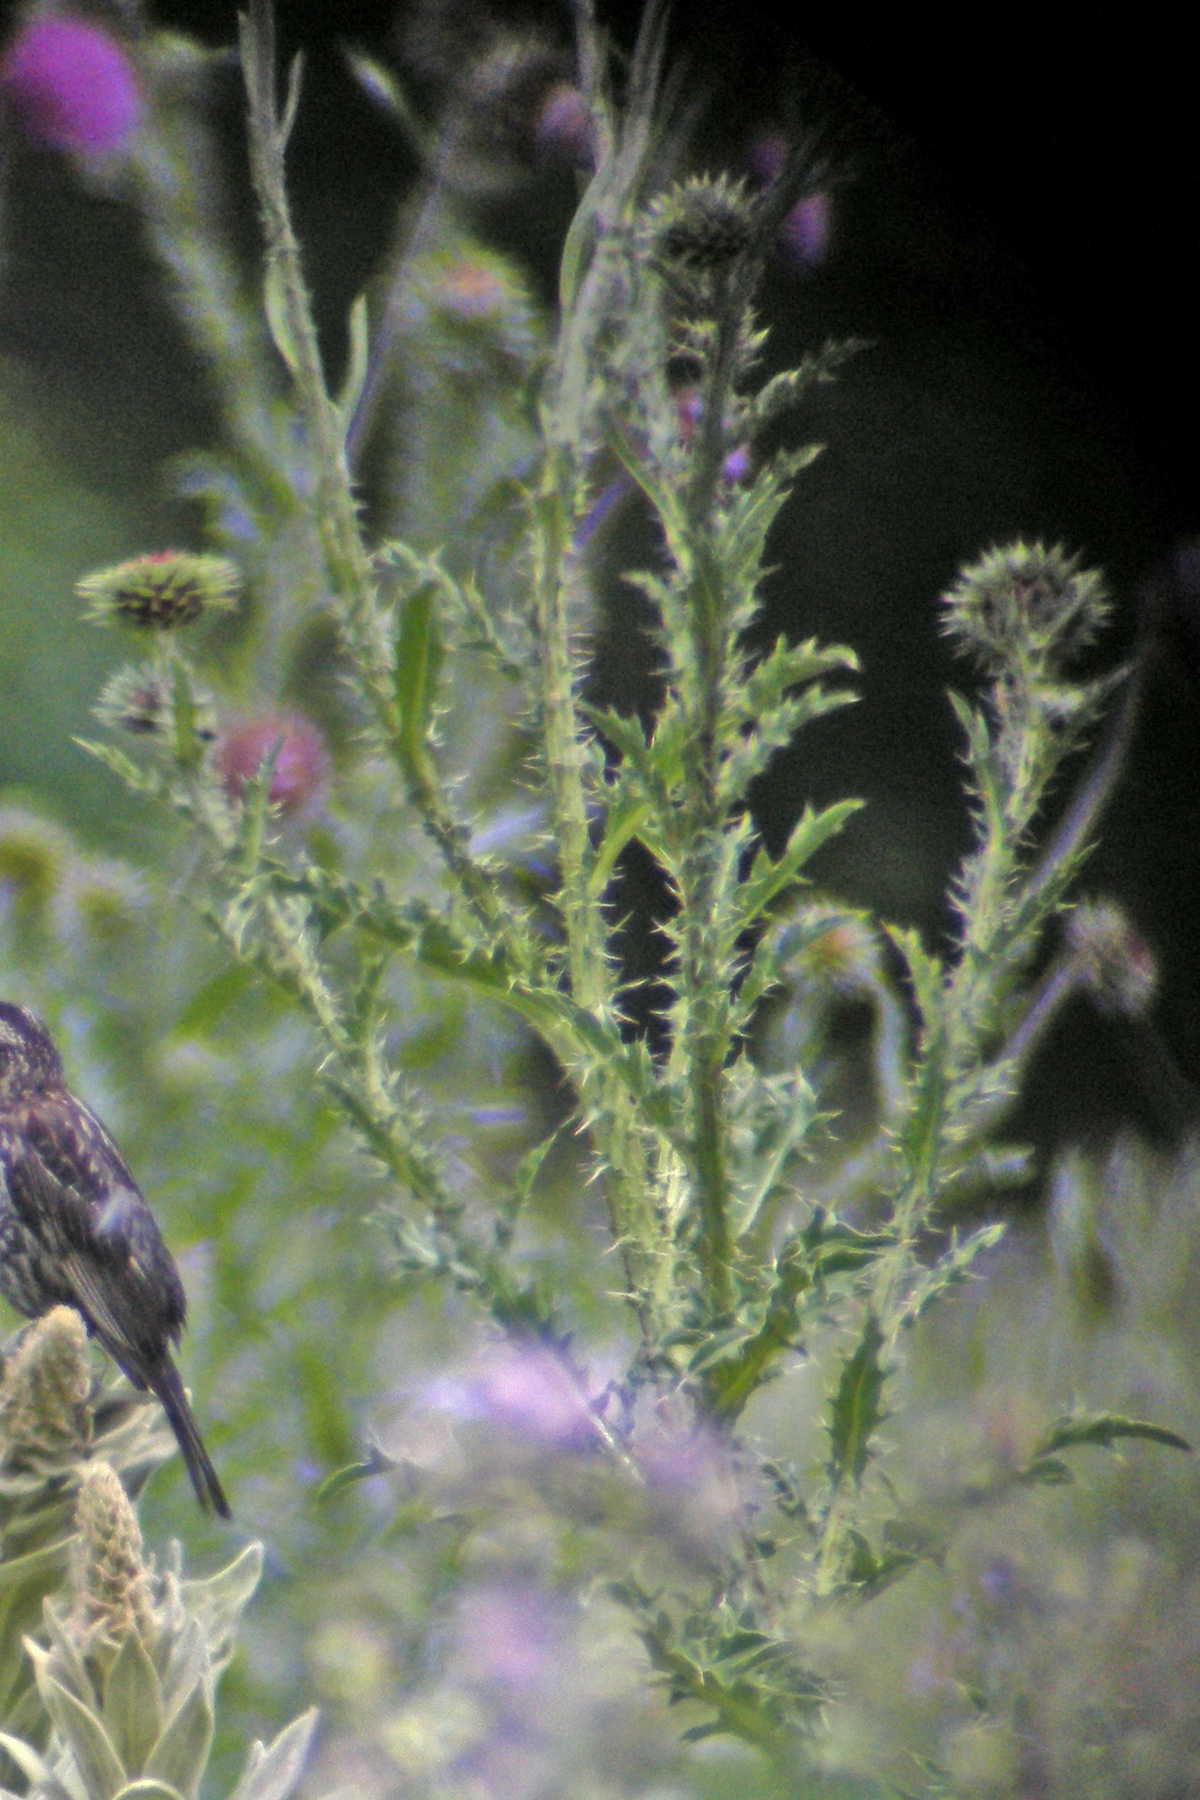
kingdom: Plantae
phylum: Tracheophyta
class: Magnoliopsida
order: Asterales
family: Asteraceae
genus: Carduus
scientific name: Carduus nutans
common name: Musk thistle
